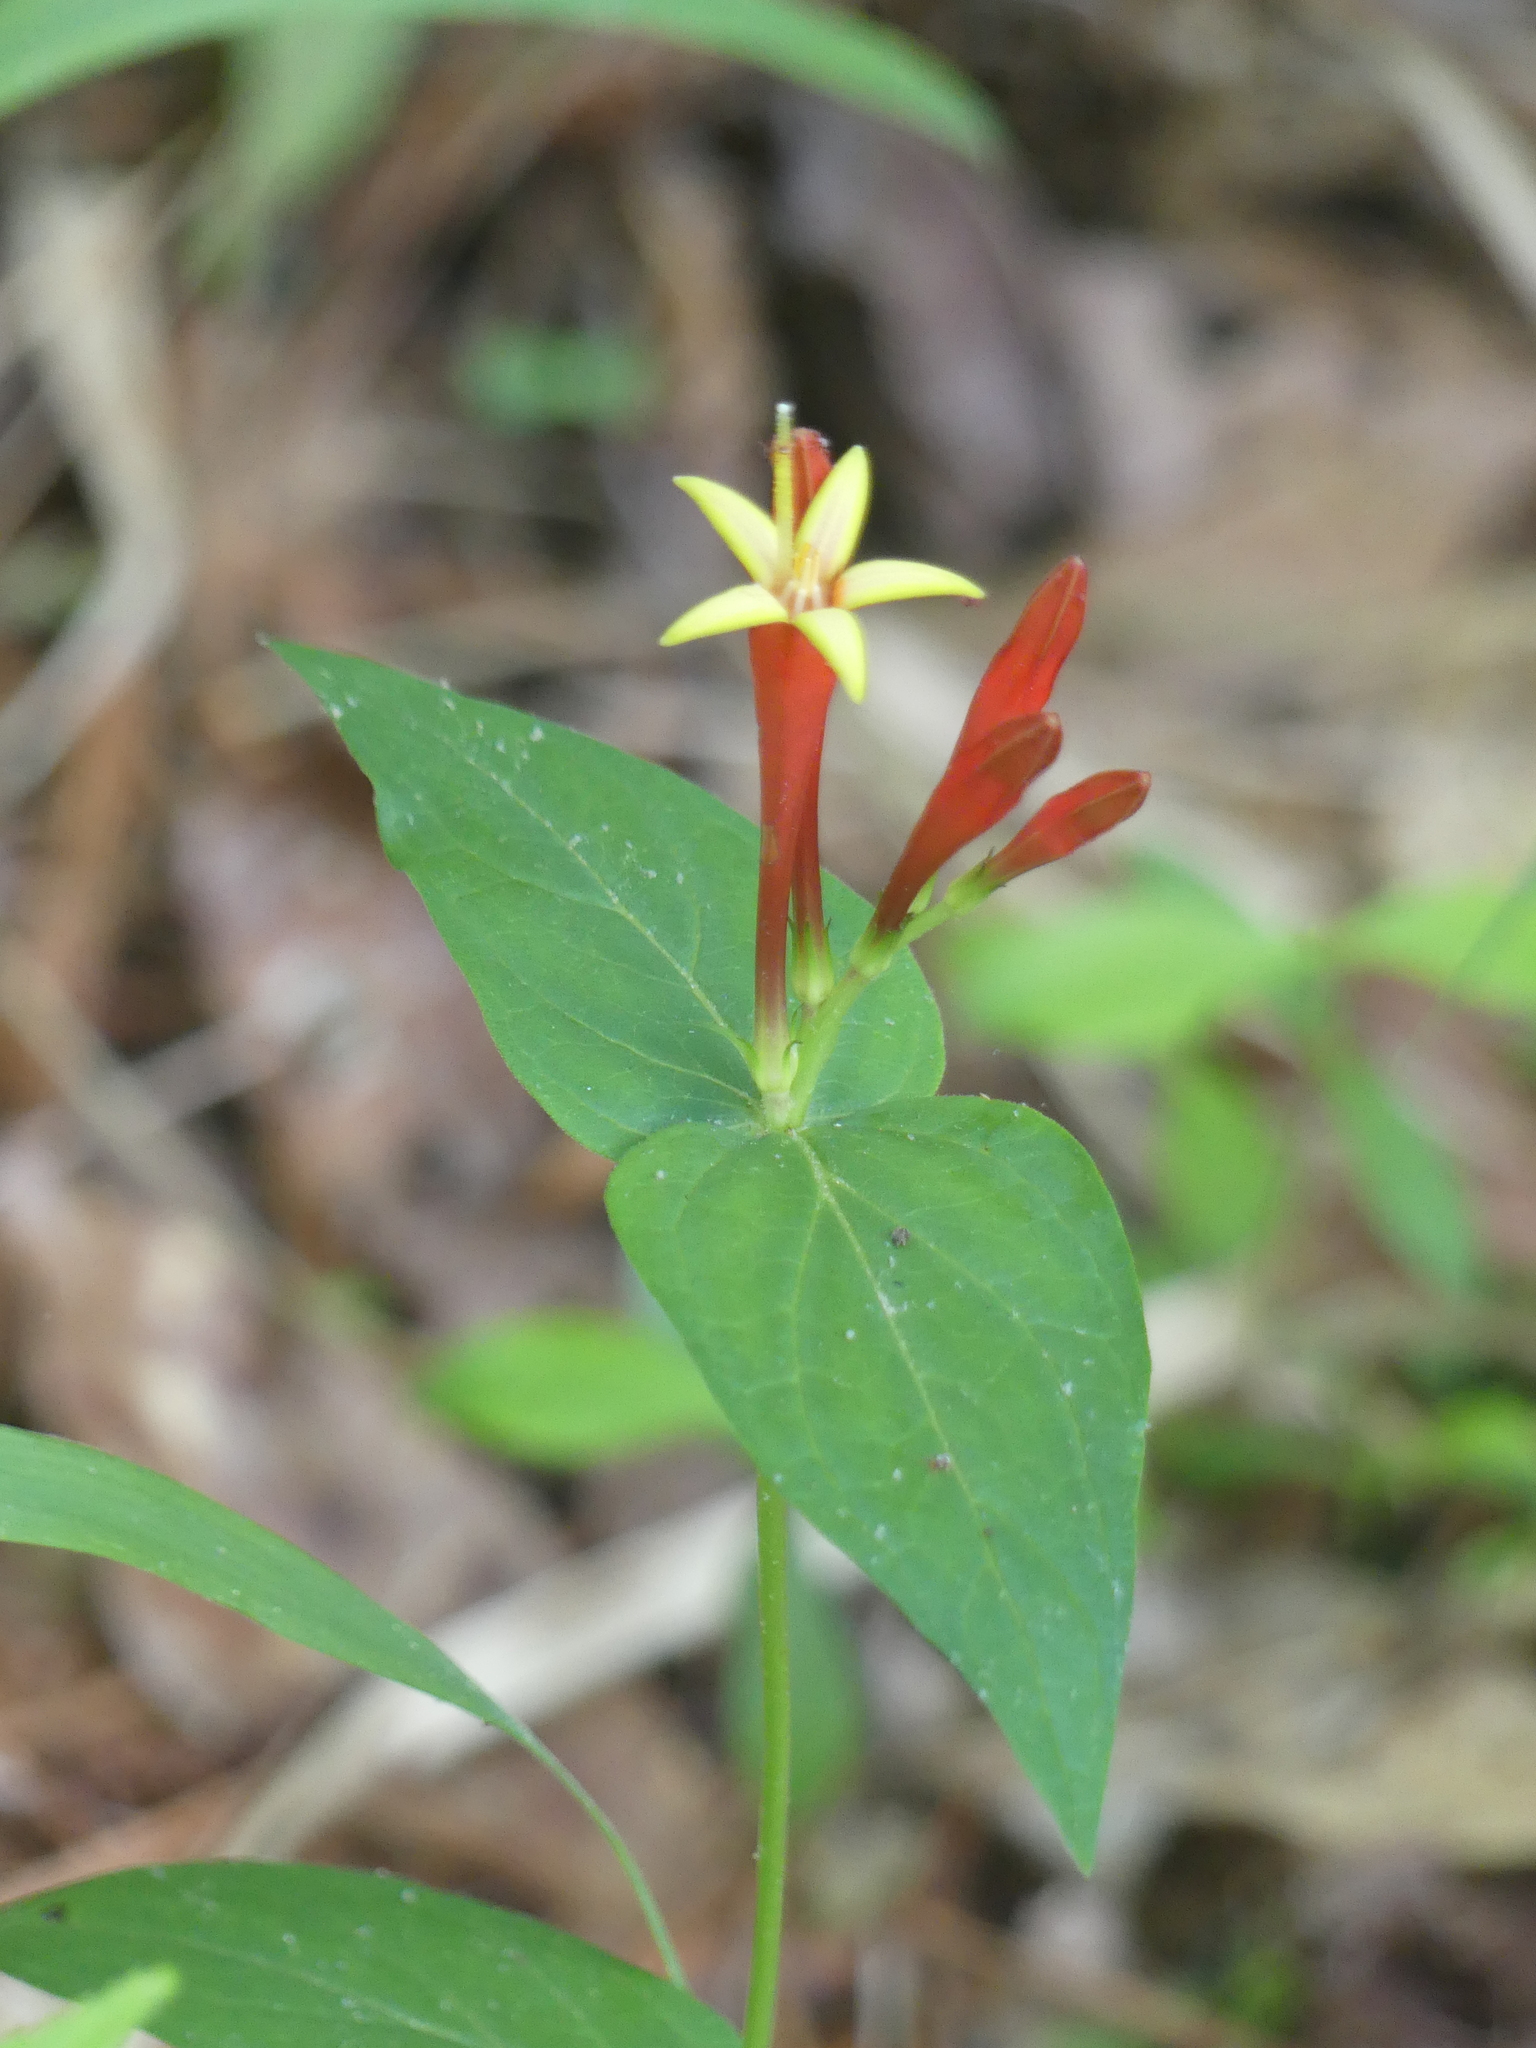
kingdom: Plantae
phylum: Tracheophyta
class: Magnoliopsida
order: Gentianales
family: Loganiaceae
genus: Spigelia
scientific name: Spigelia marilandica
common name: Indian-pink
